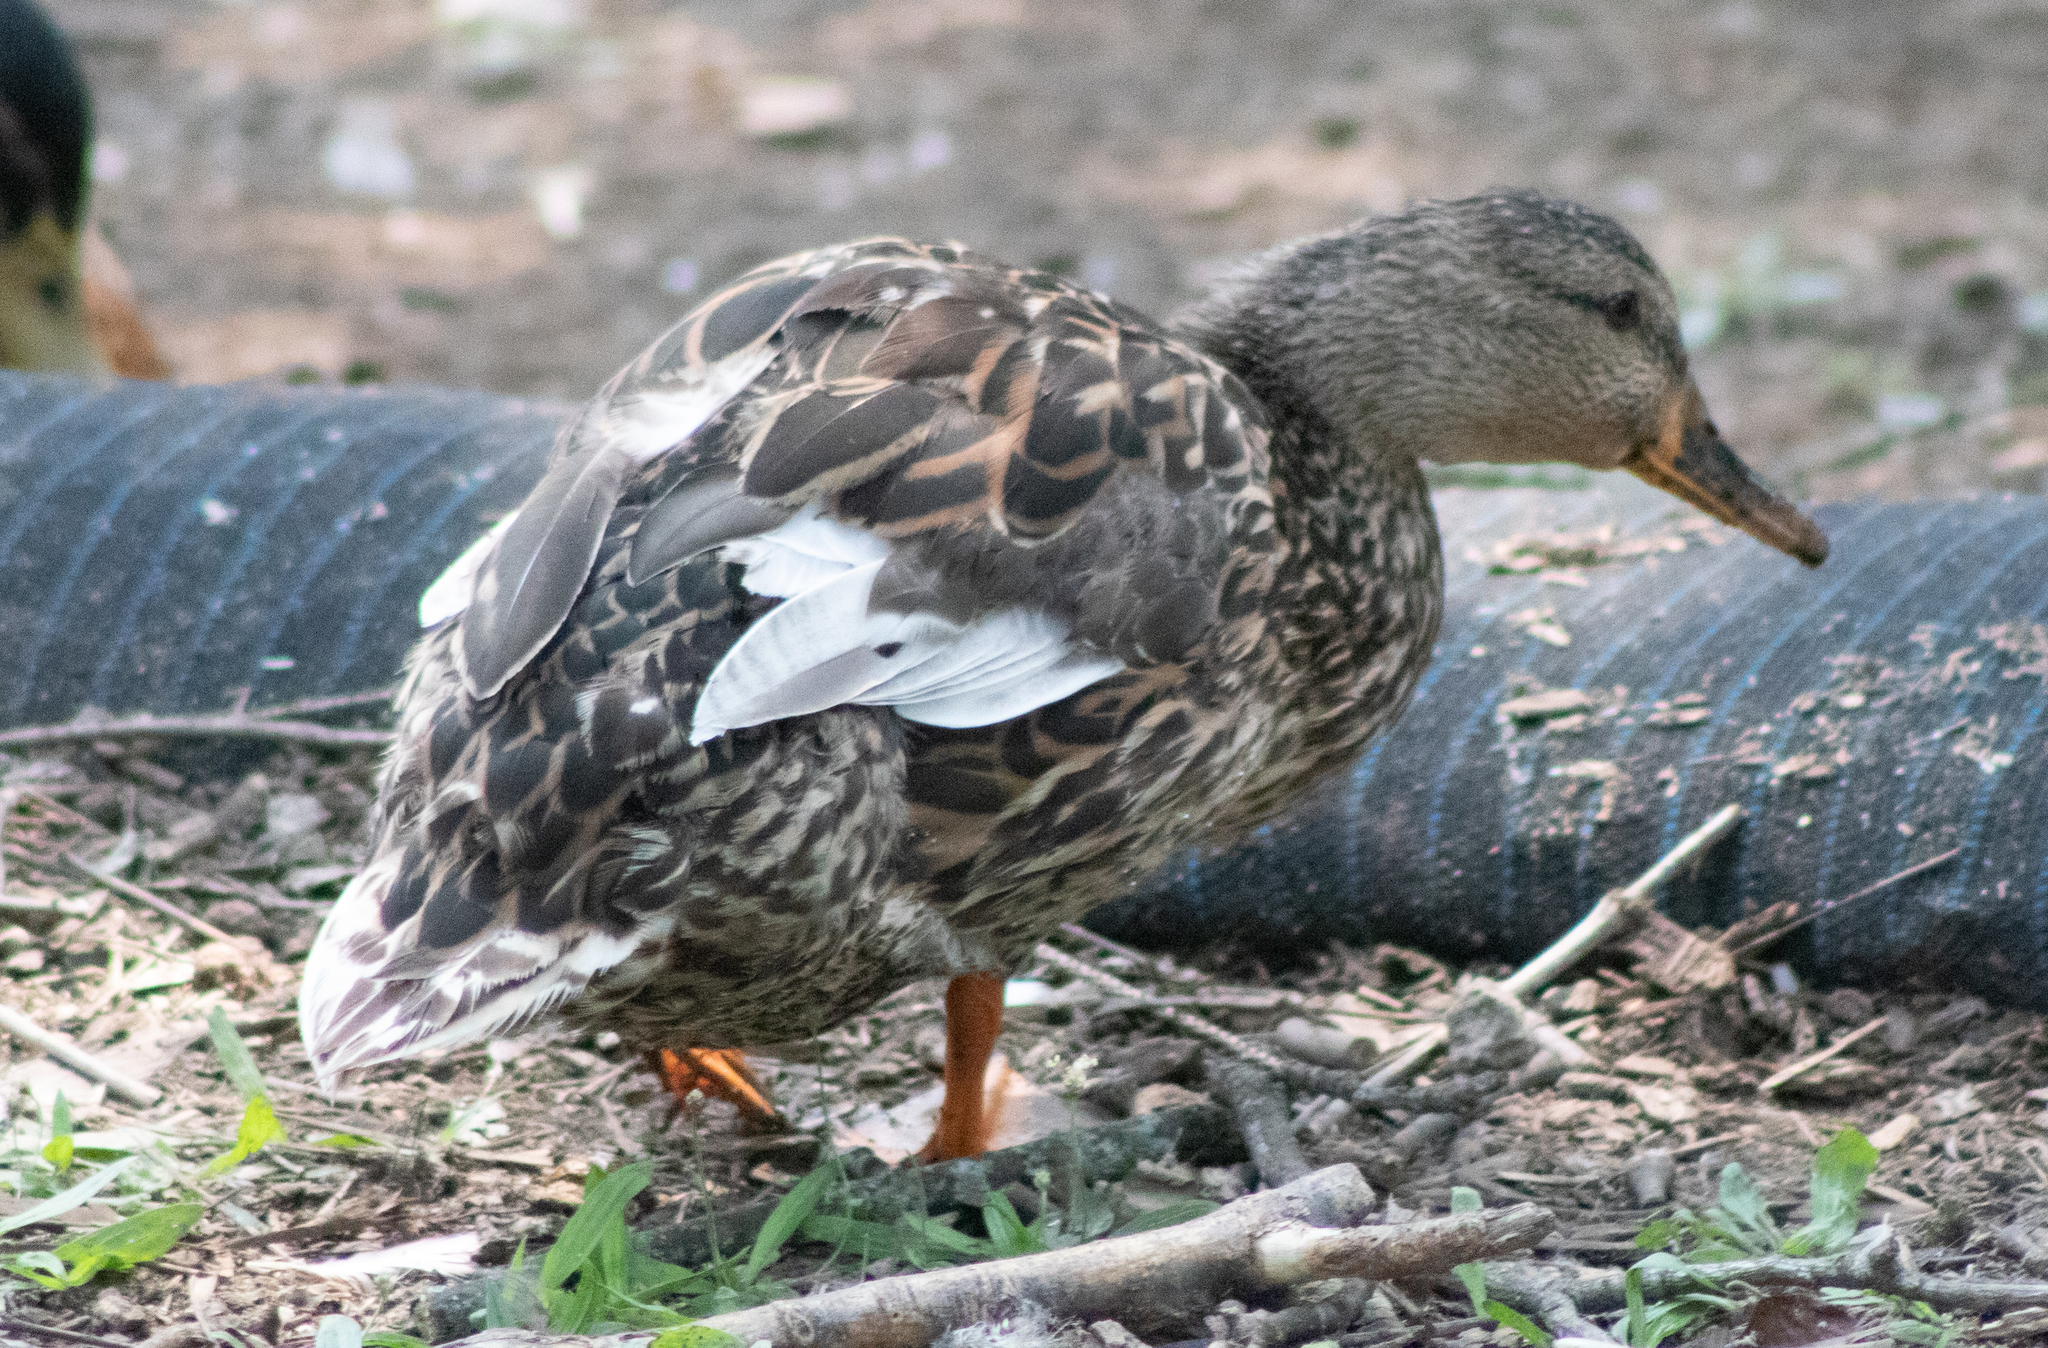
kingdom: Animalia
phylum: Chordata
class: Aves
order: Anseriformes
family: Anatidae
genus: Anas
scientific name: Anas platyrhynchos
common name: Mallard
